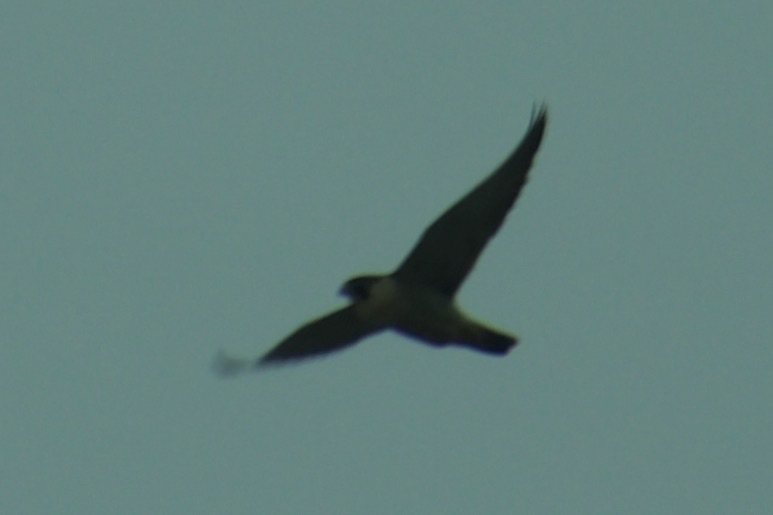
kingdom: Animalia
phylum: Chordata
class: Aves
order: Falconiformes
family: Falconidae
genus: Falco
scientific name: Falco peregrinus
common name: Peregrine falcon
